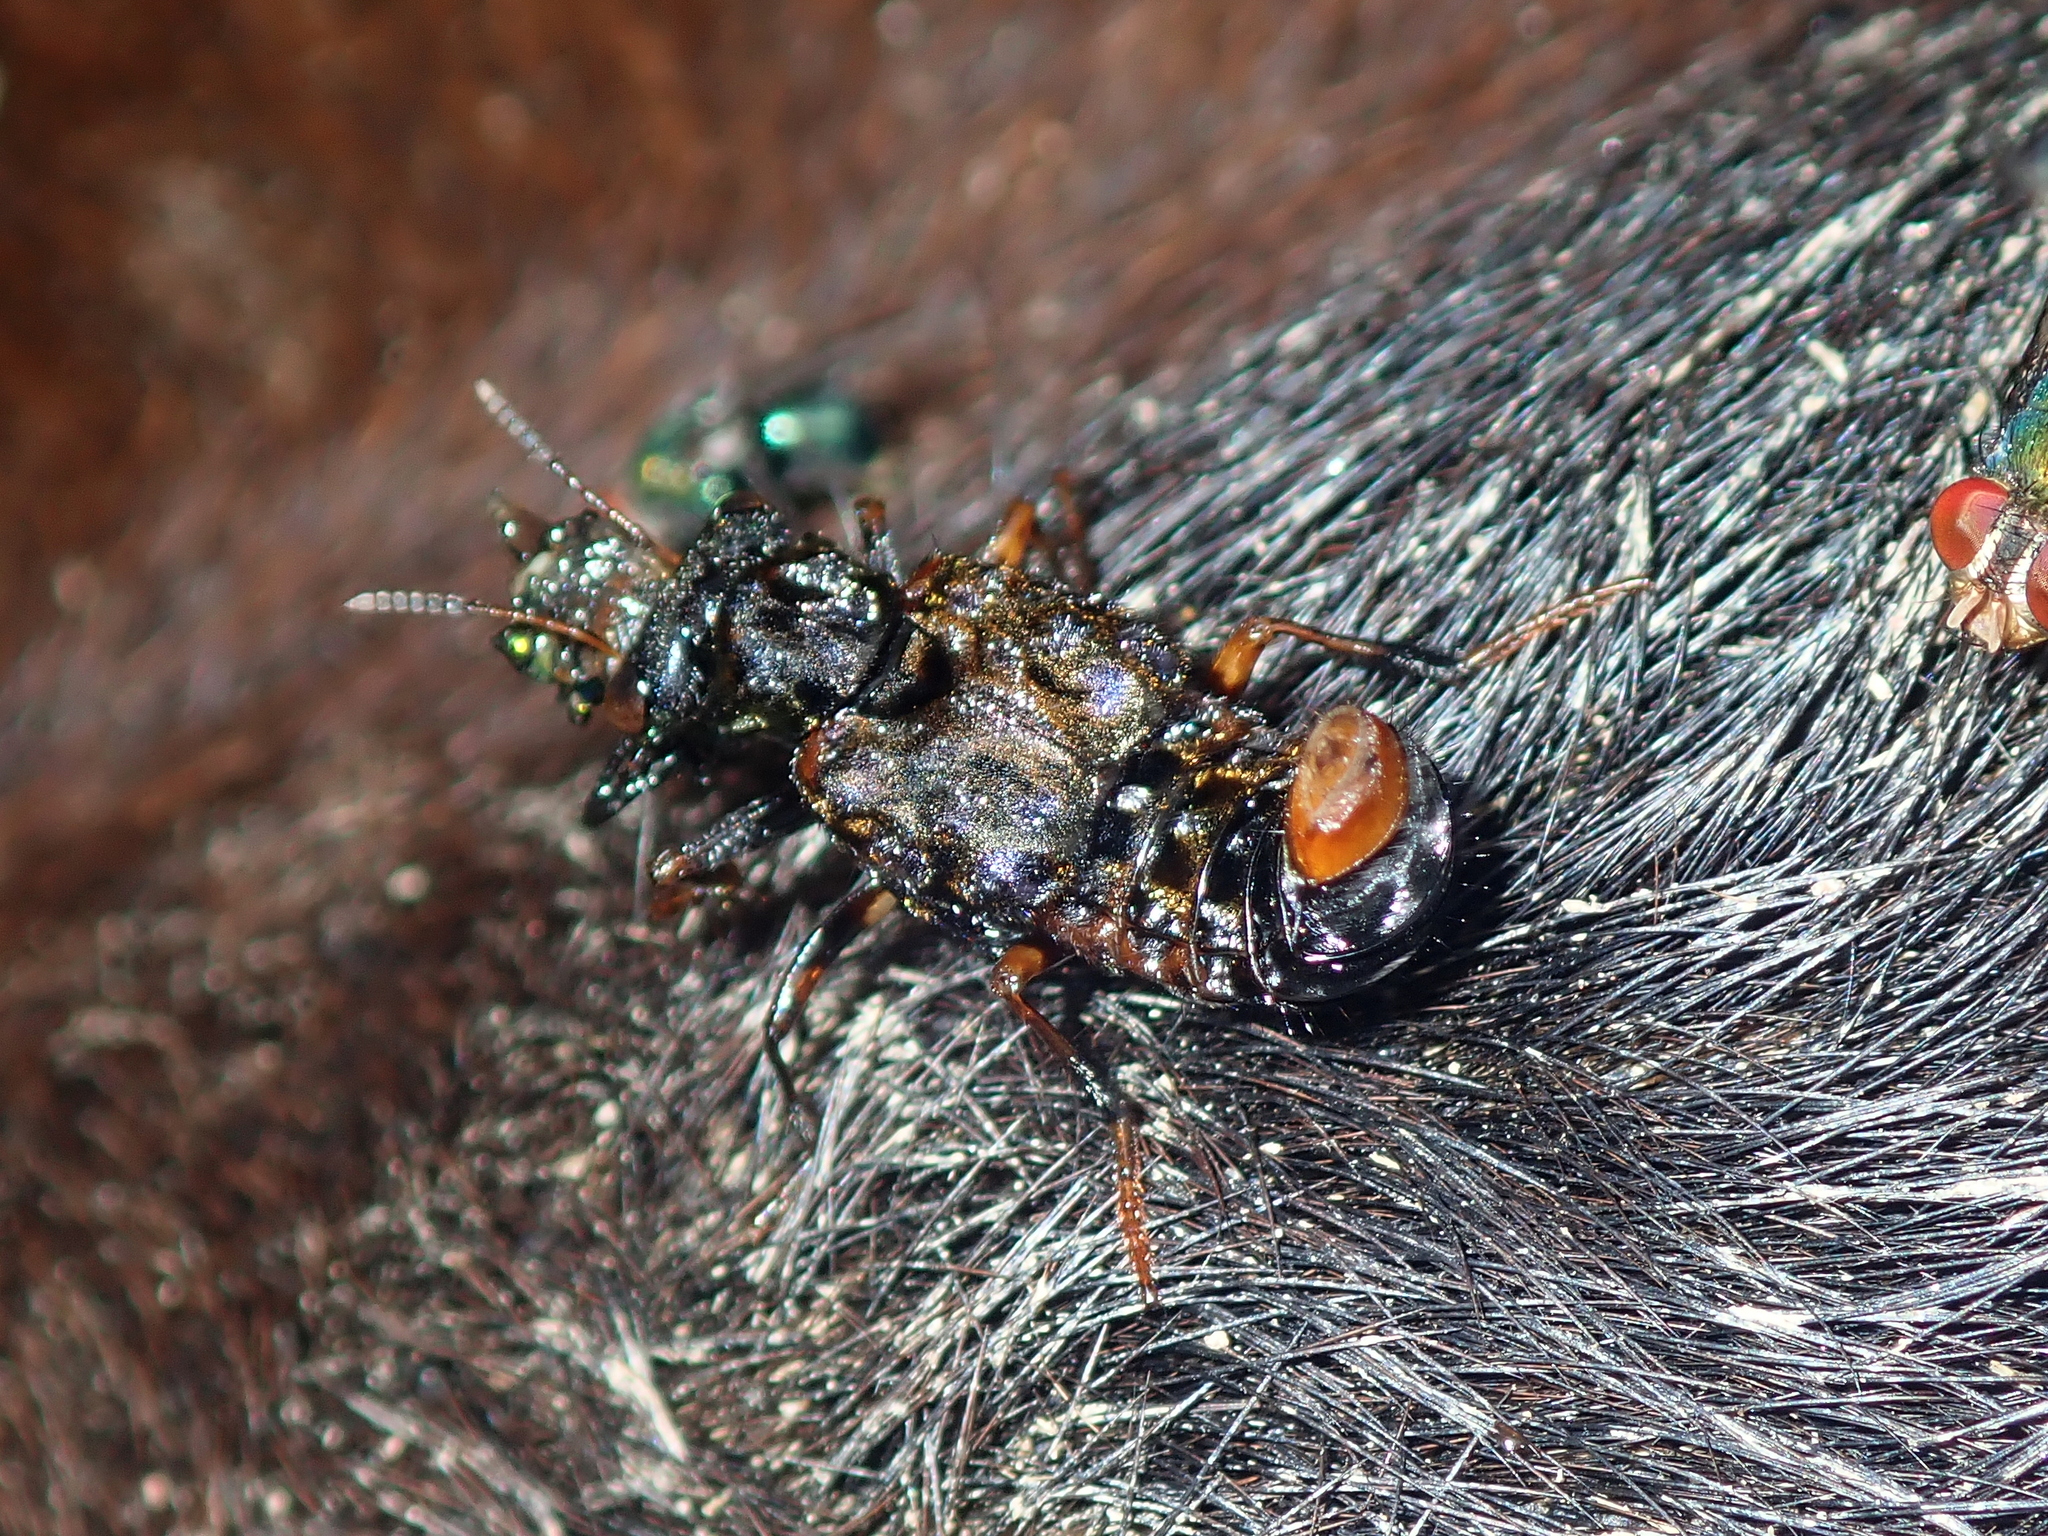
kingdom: Animalia
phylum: Arthropoda
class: Insecta
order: Coleoptera
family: Staphylinidae
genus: Leistotrophus
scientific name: Leistotrophus versicolor
